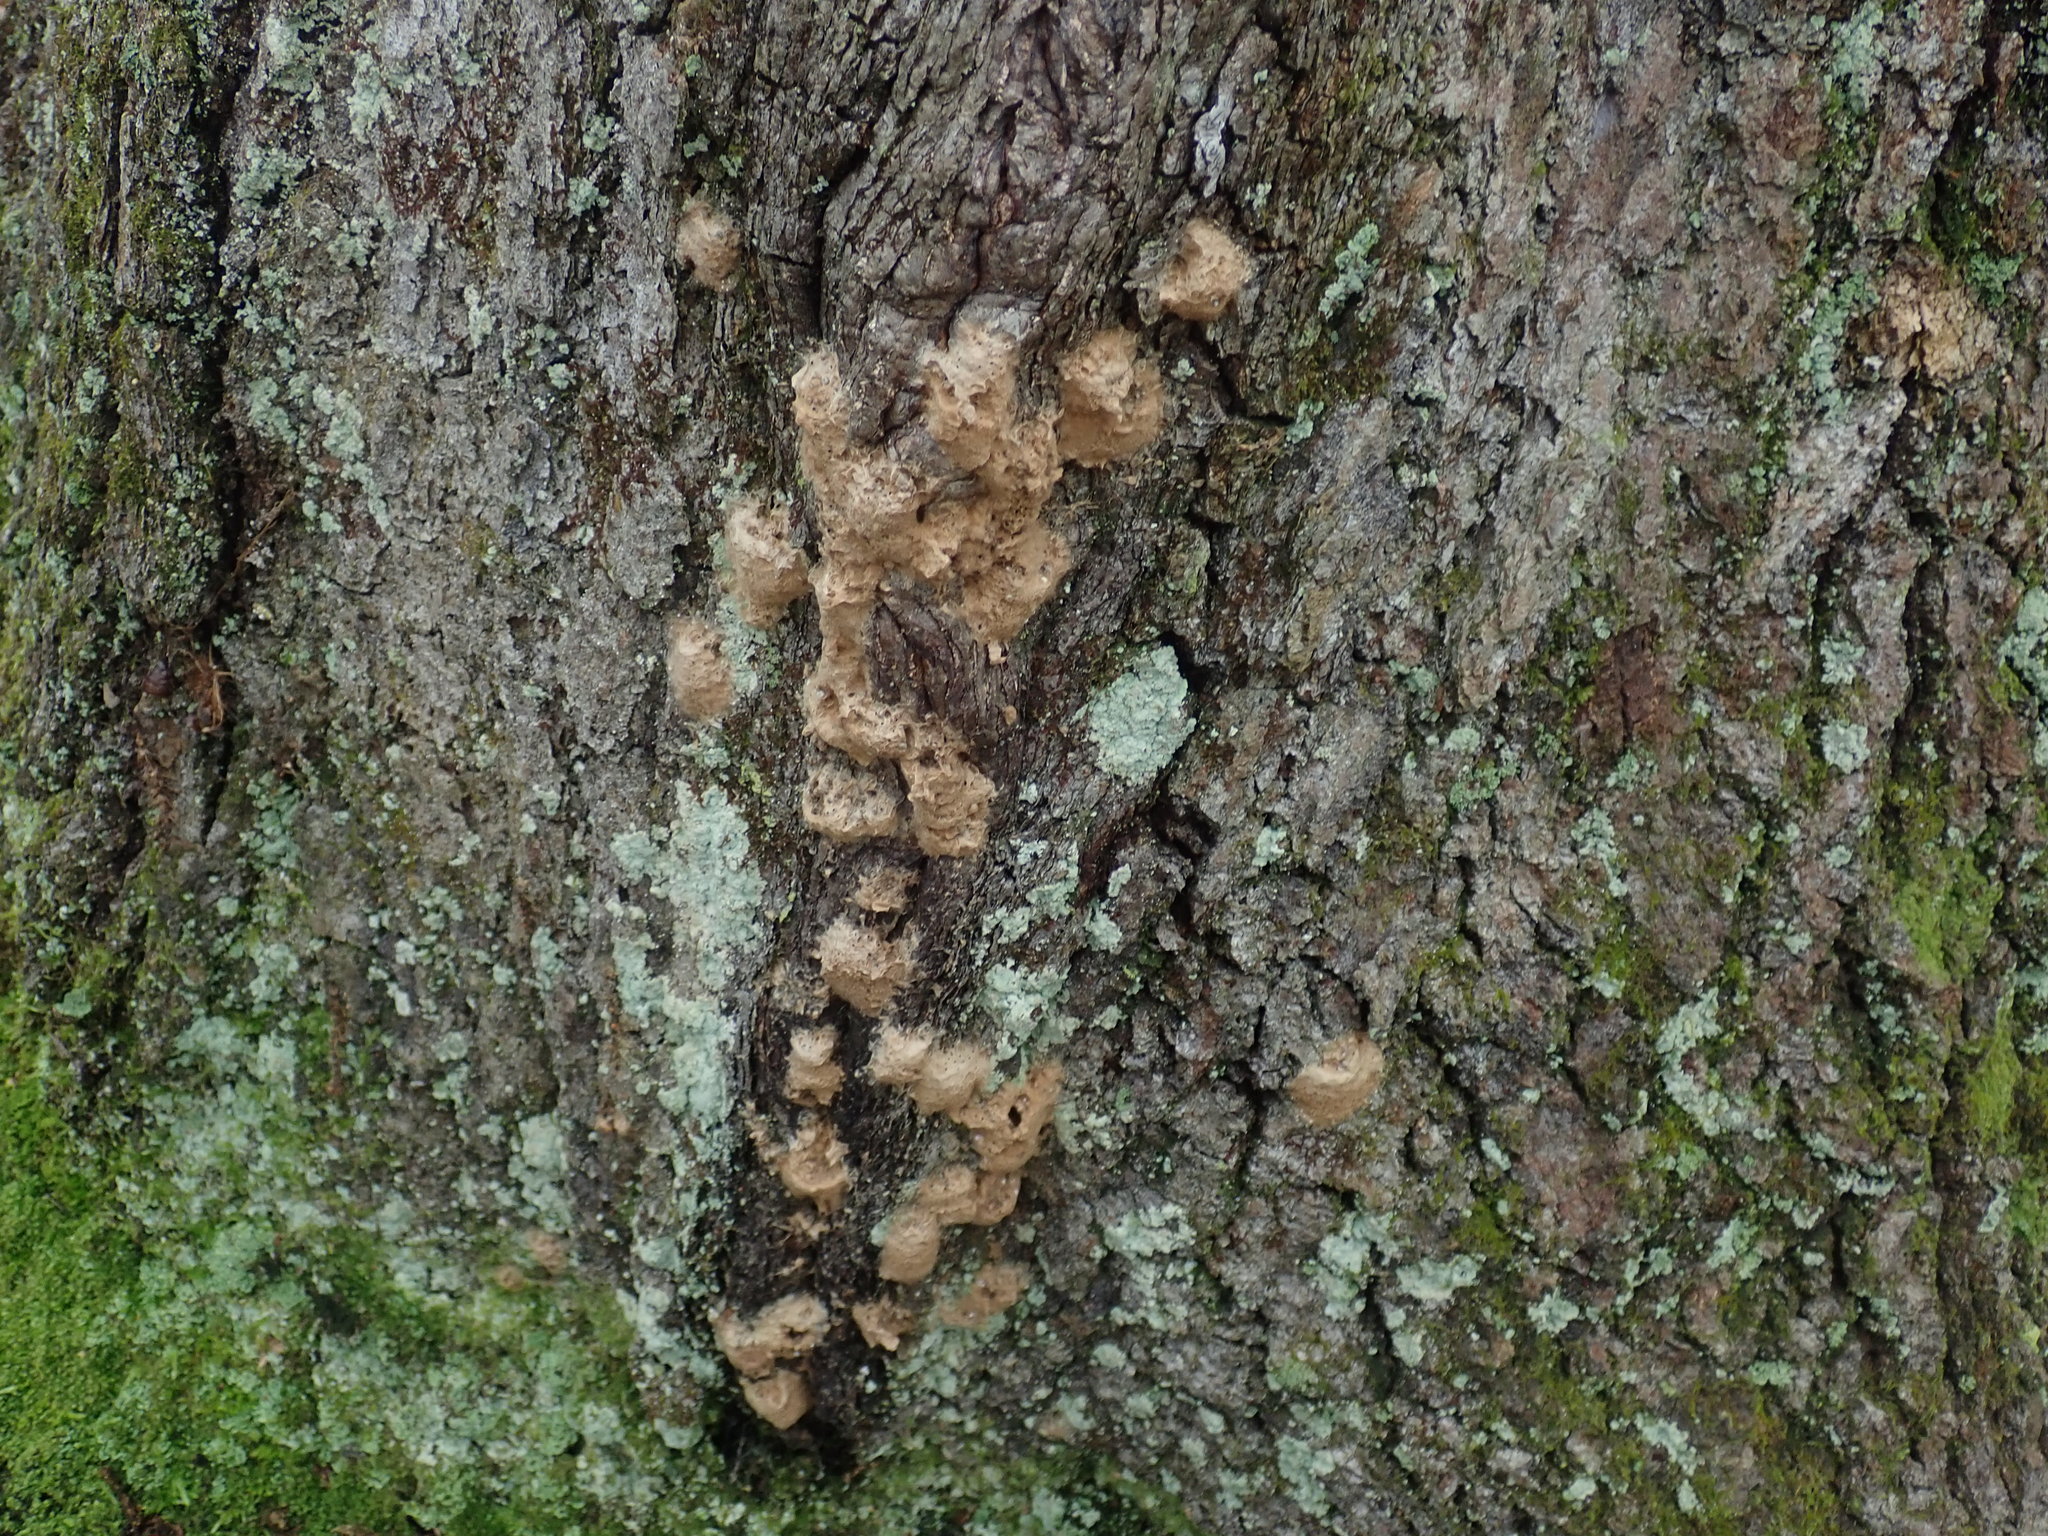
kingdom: Animalia
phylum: Arthropoda
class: Insecta
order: Lepidoptera
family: Erebidae
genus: Lymantria
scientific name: Lymantria dispar
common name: Gypsy moth
